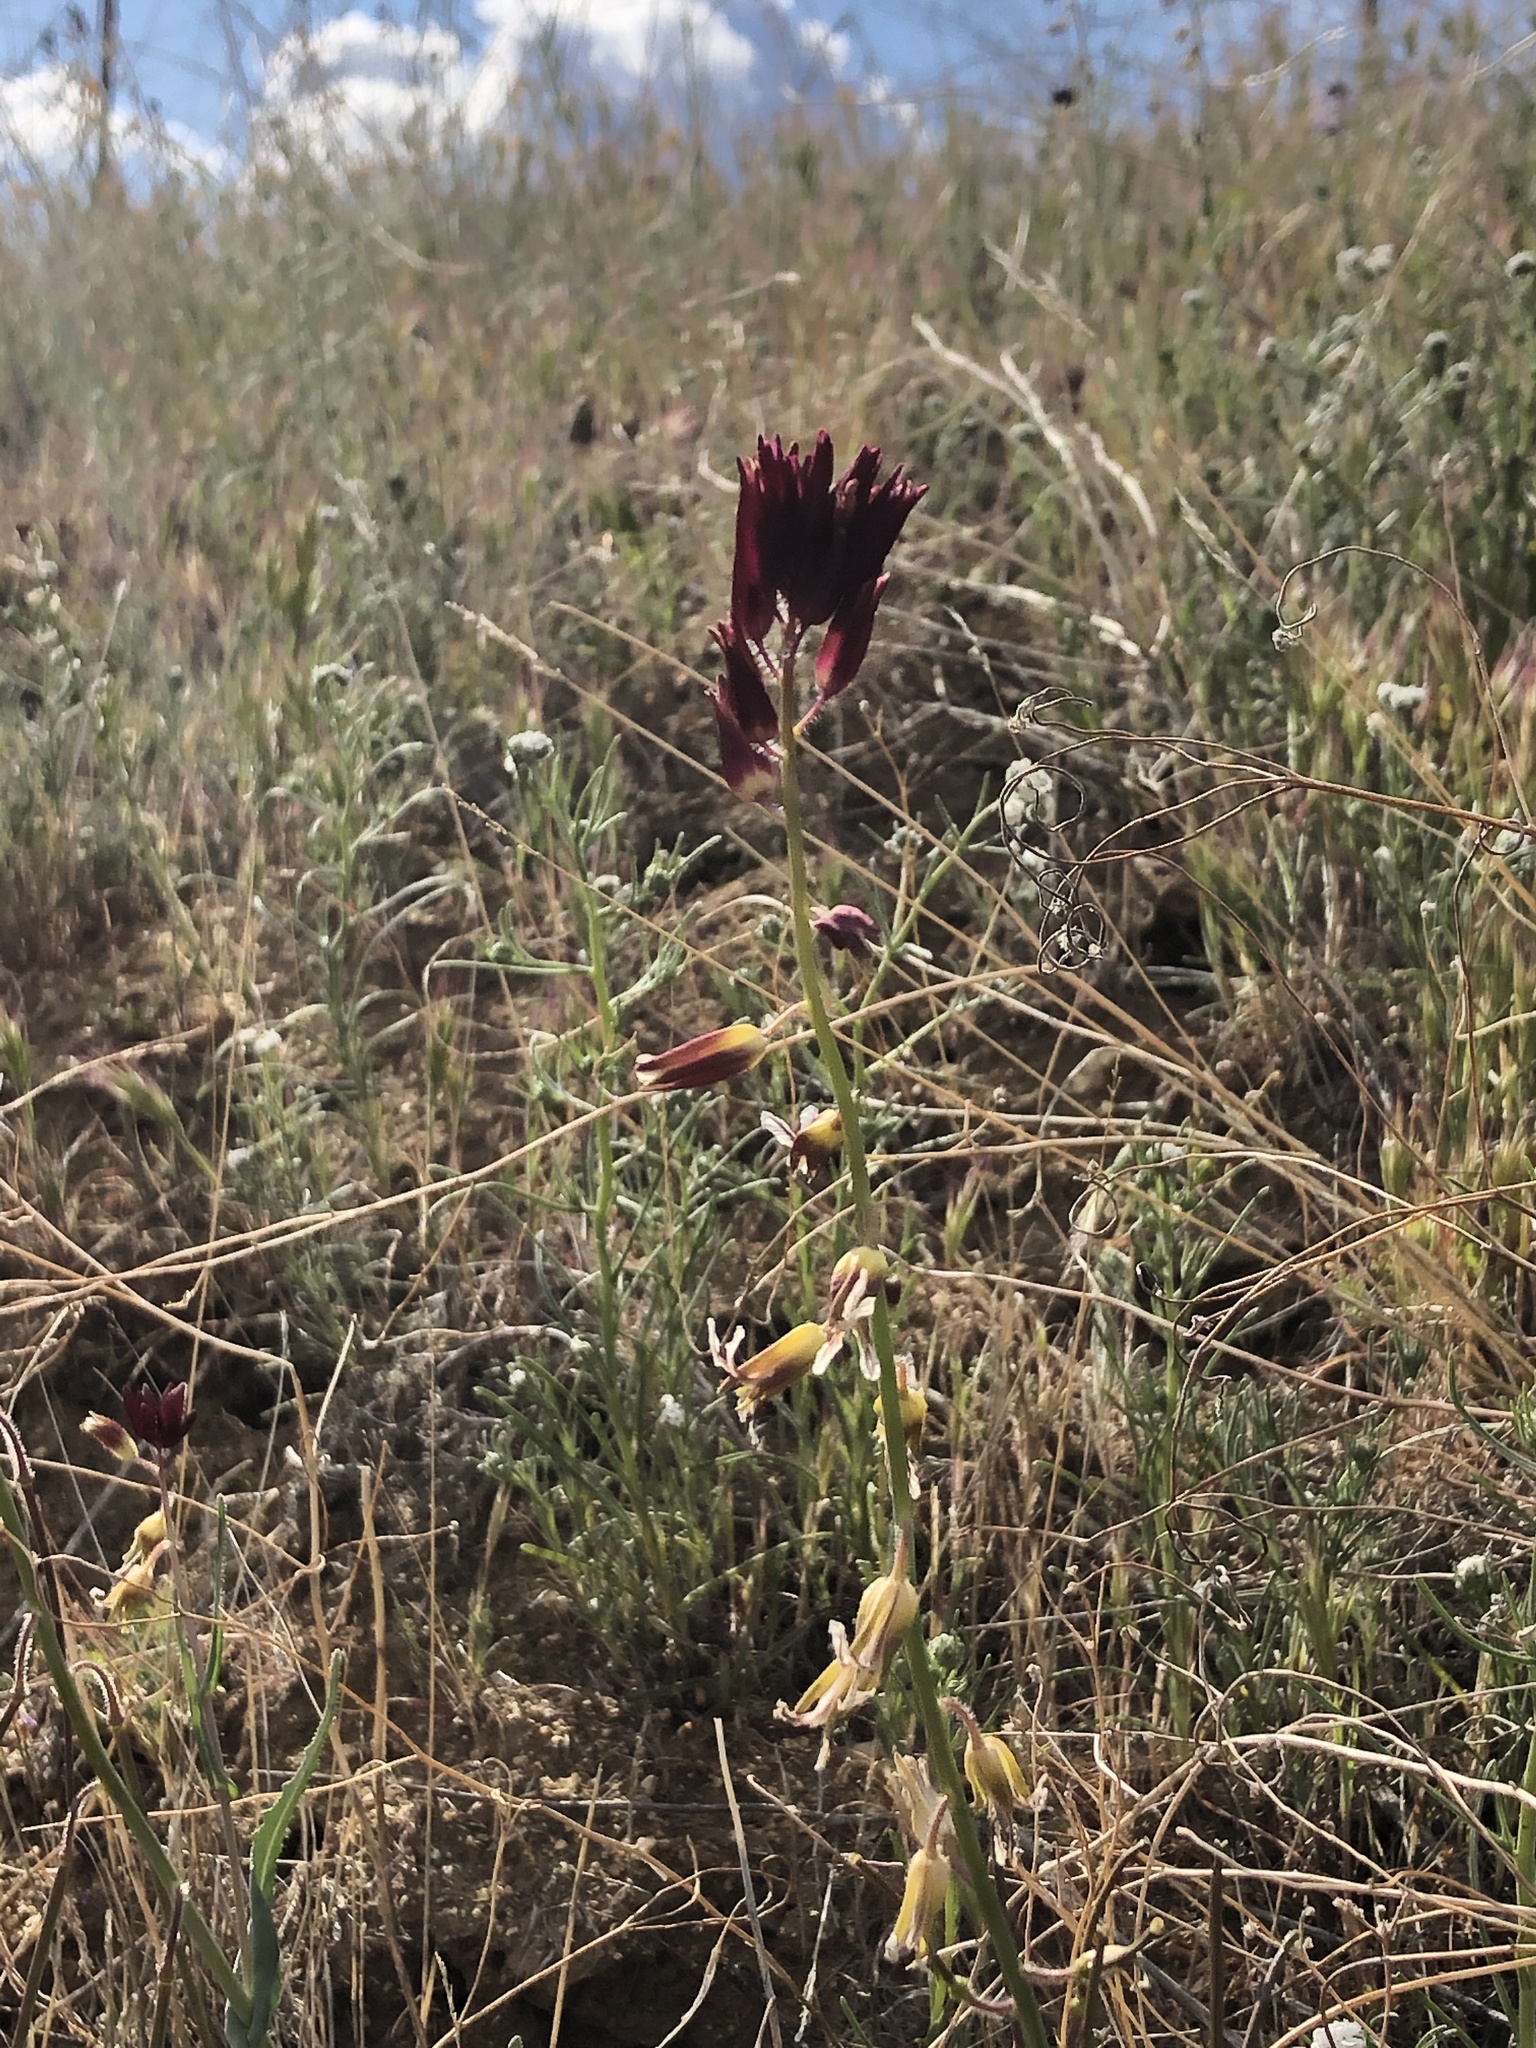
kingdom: Plantae
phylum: Tracheophyta
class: Magnoliopsida
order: Brassicales
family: Brassicaceae
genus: Streptanthus
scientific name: Streptanthus coulteri
